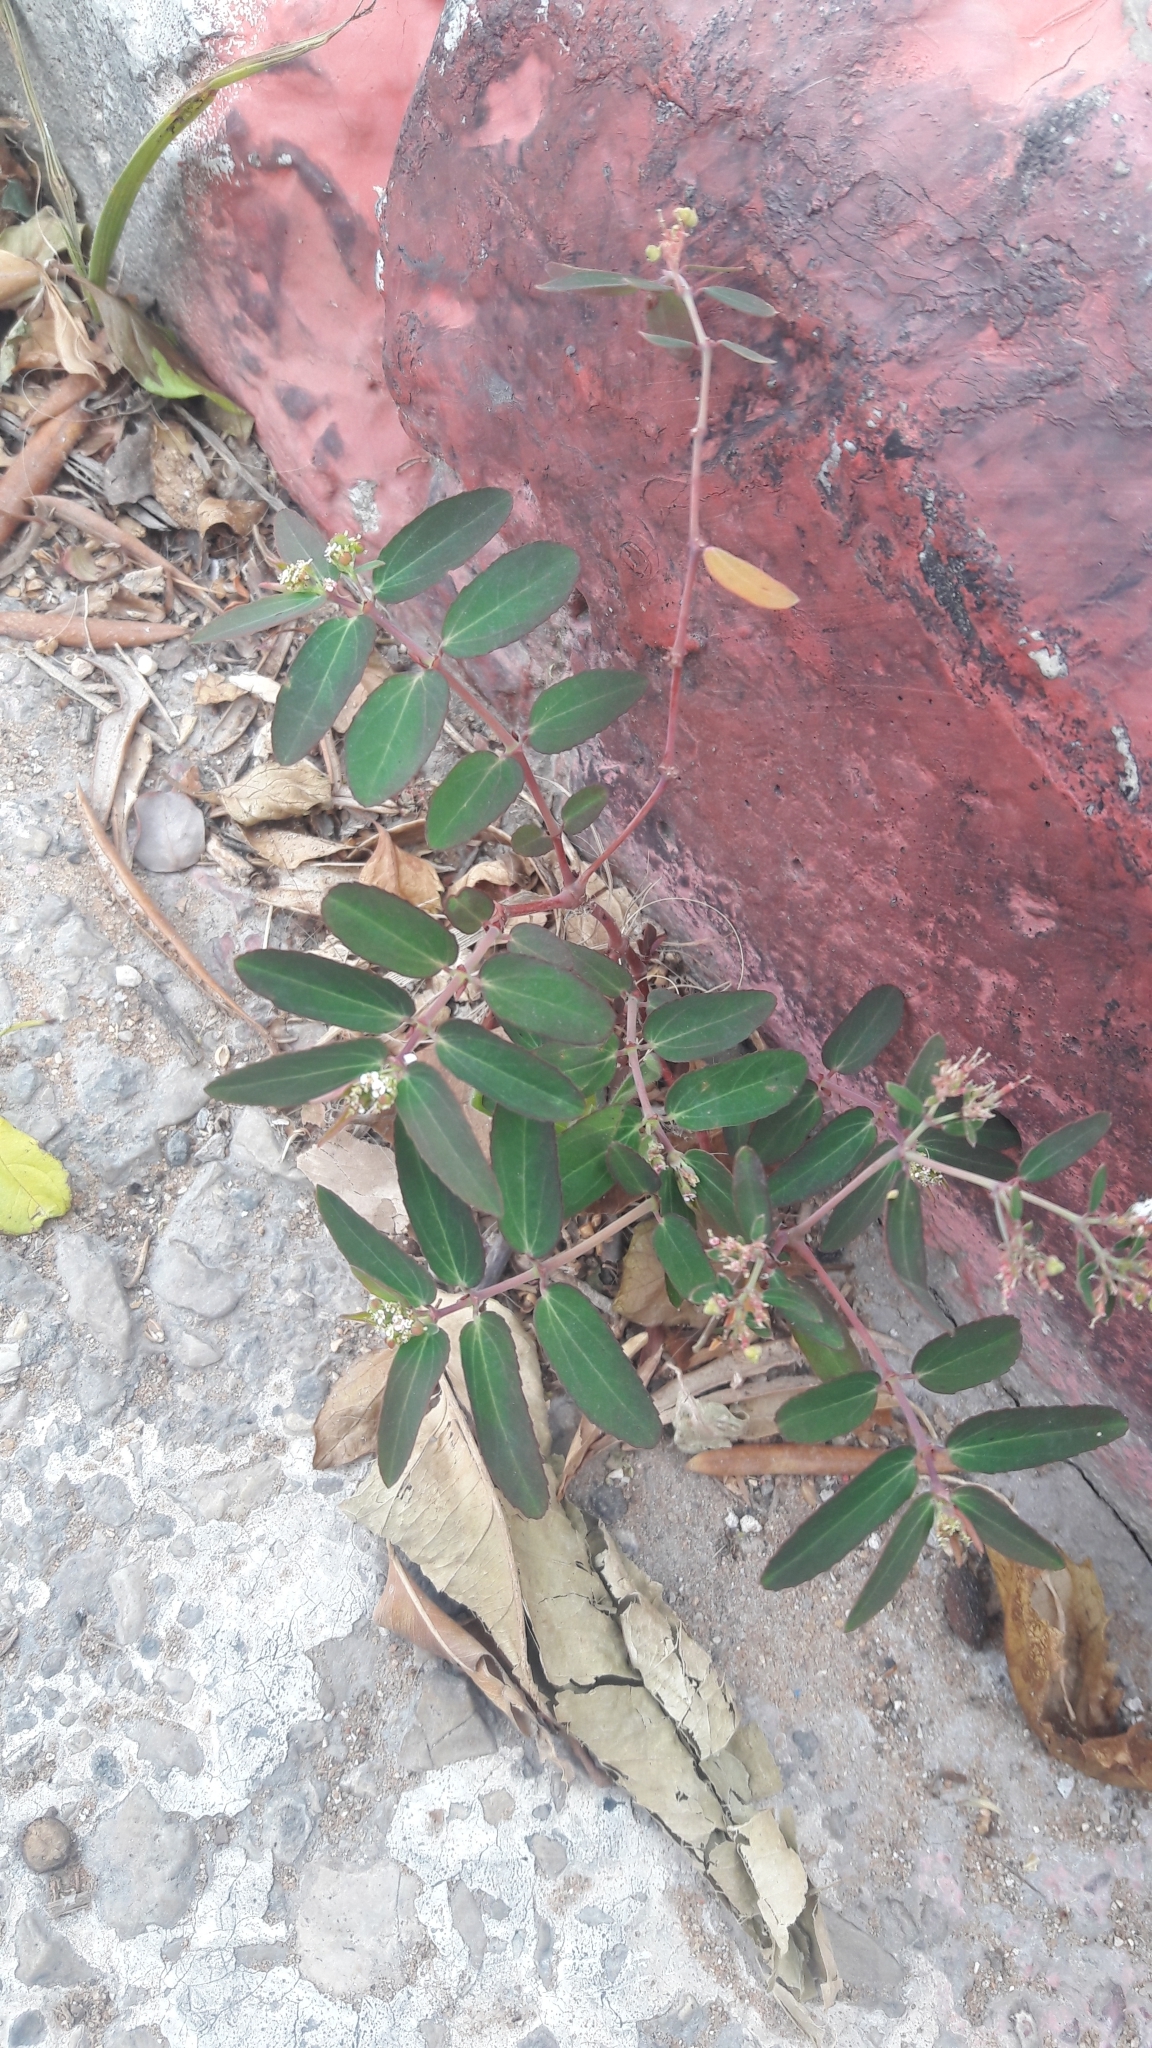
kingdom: Plantae
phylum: Tracheophyta
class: Magnoliopsida
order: Malpighiales
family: Euphorbiaceae
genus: Euphorbia
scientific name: Euphorbia hypericifolia
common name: Graceful sandmat
